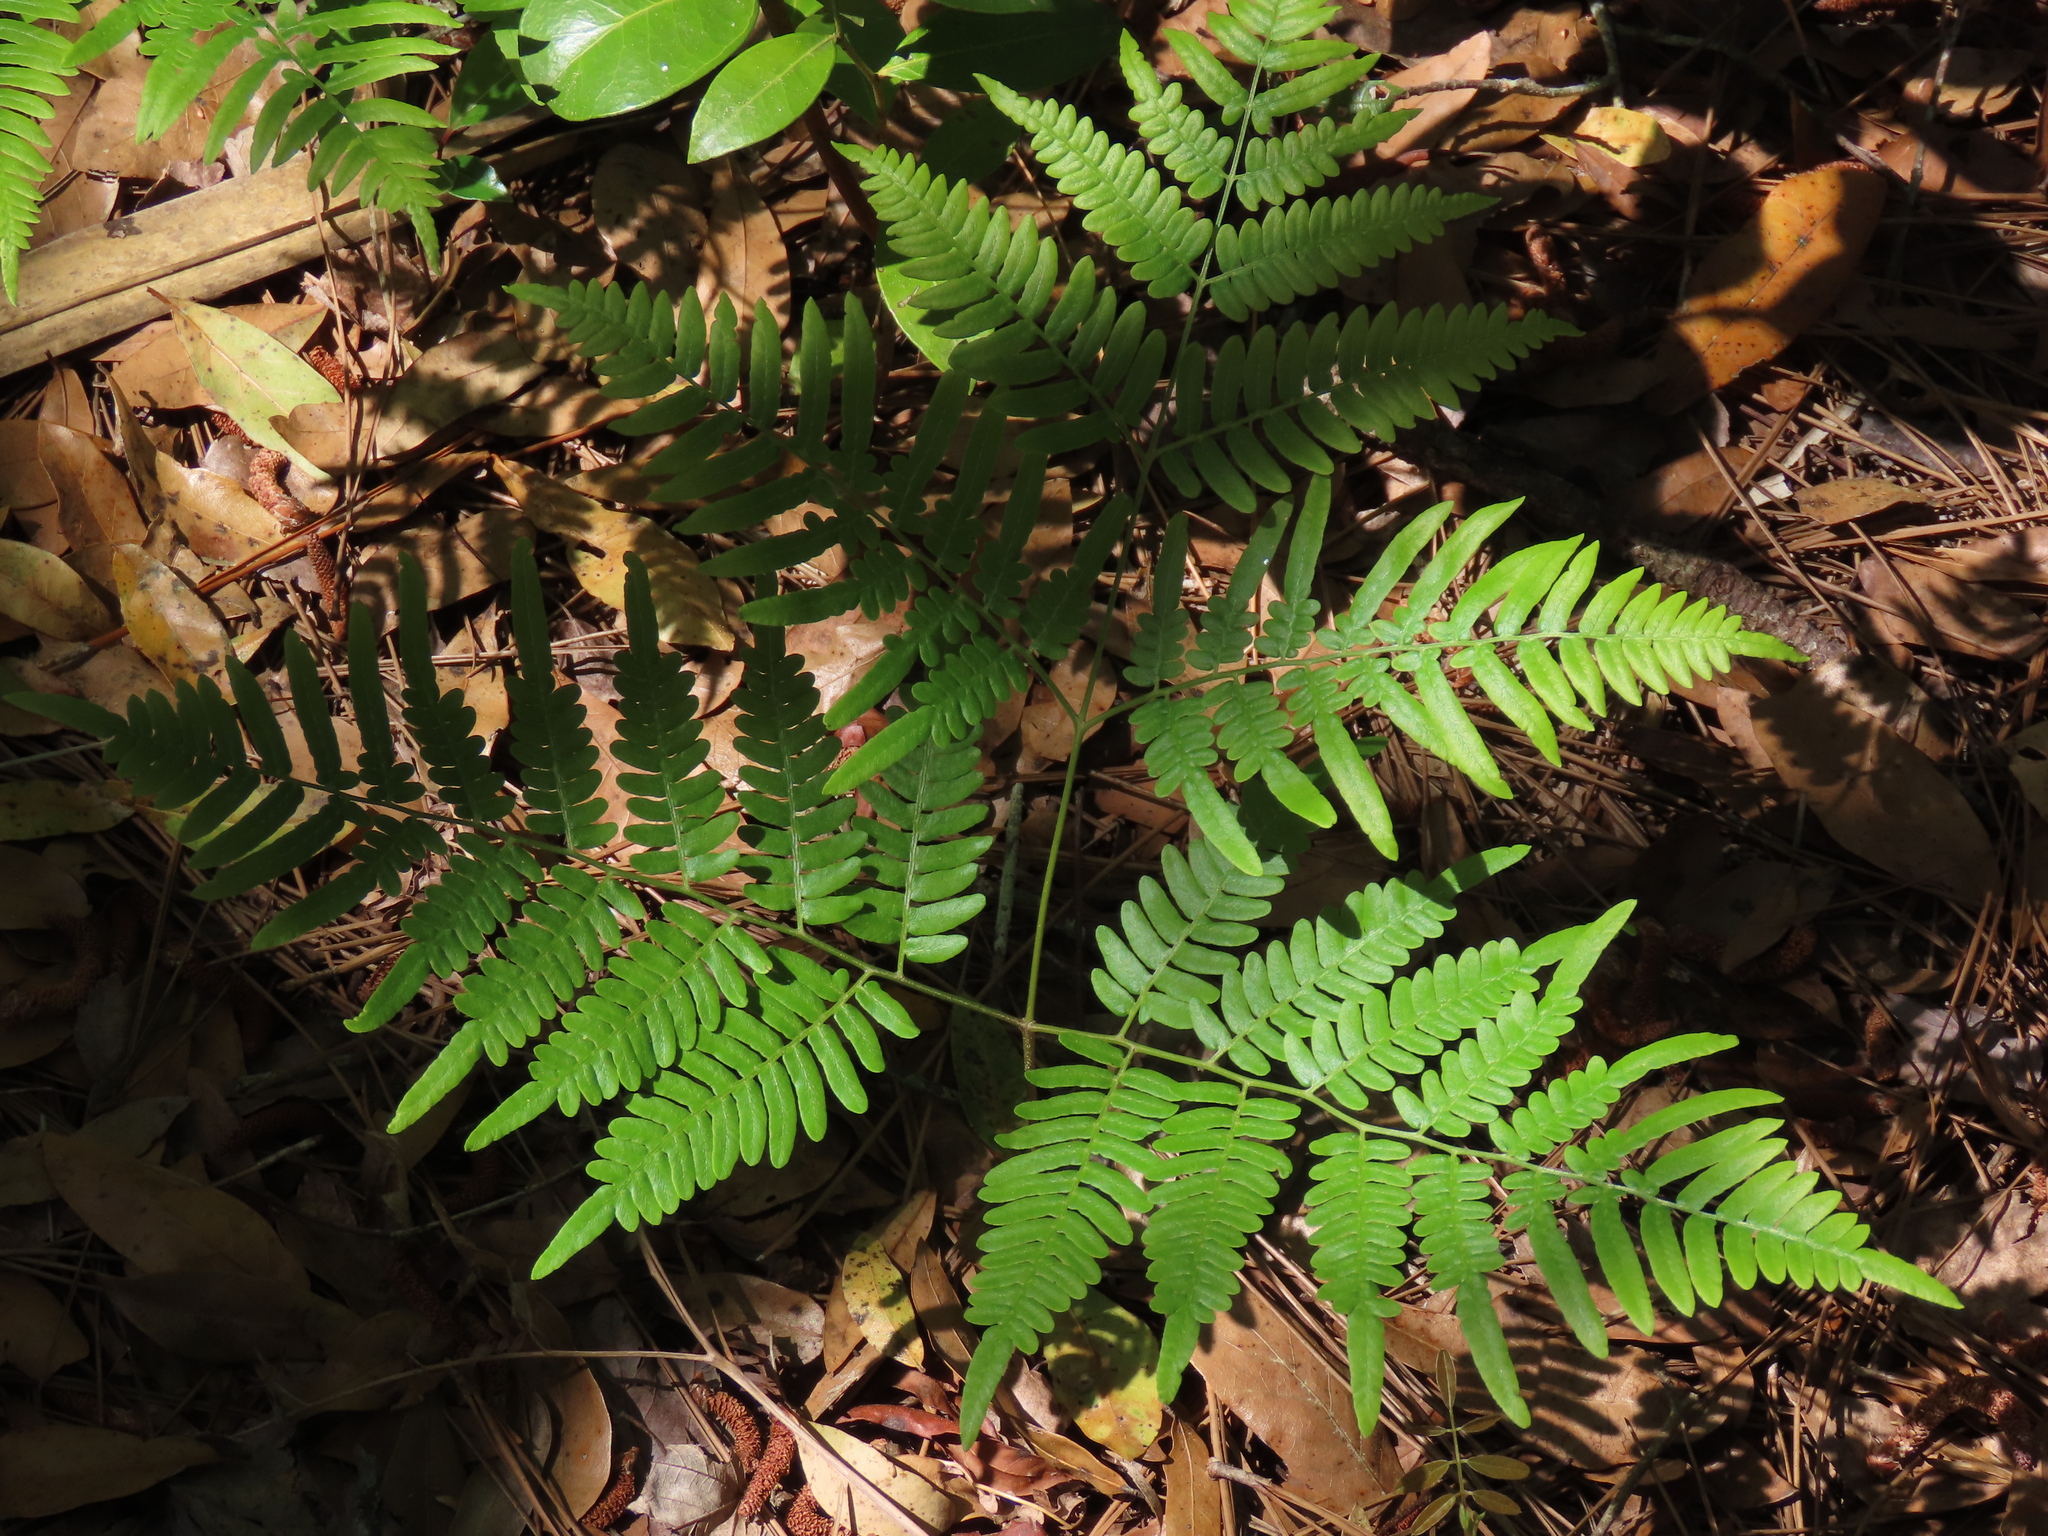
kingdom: Plantae
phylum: Tracheophyta
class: Polypodiopsida
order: Polypodiales
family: Dennstaedtiaceae
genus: Pteridium
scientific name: Pteridium aquilinum
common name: Bracken
